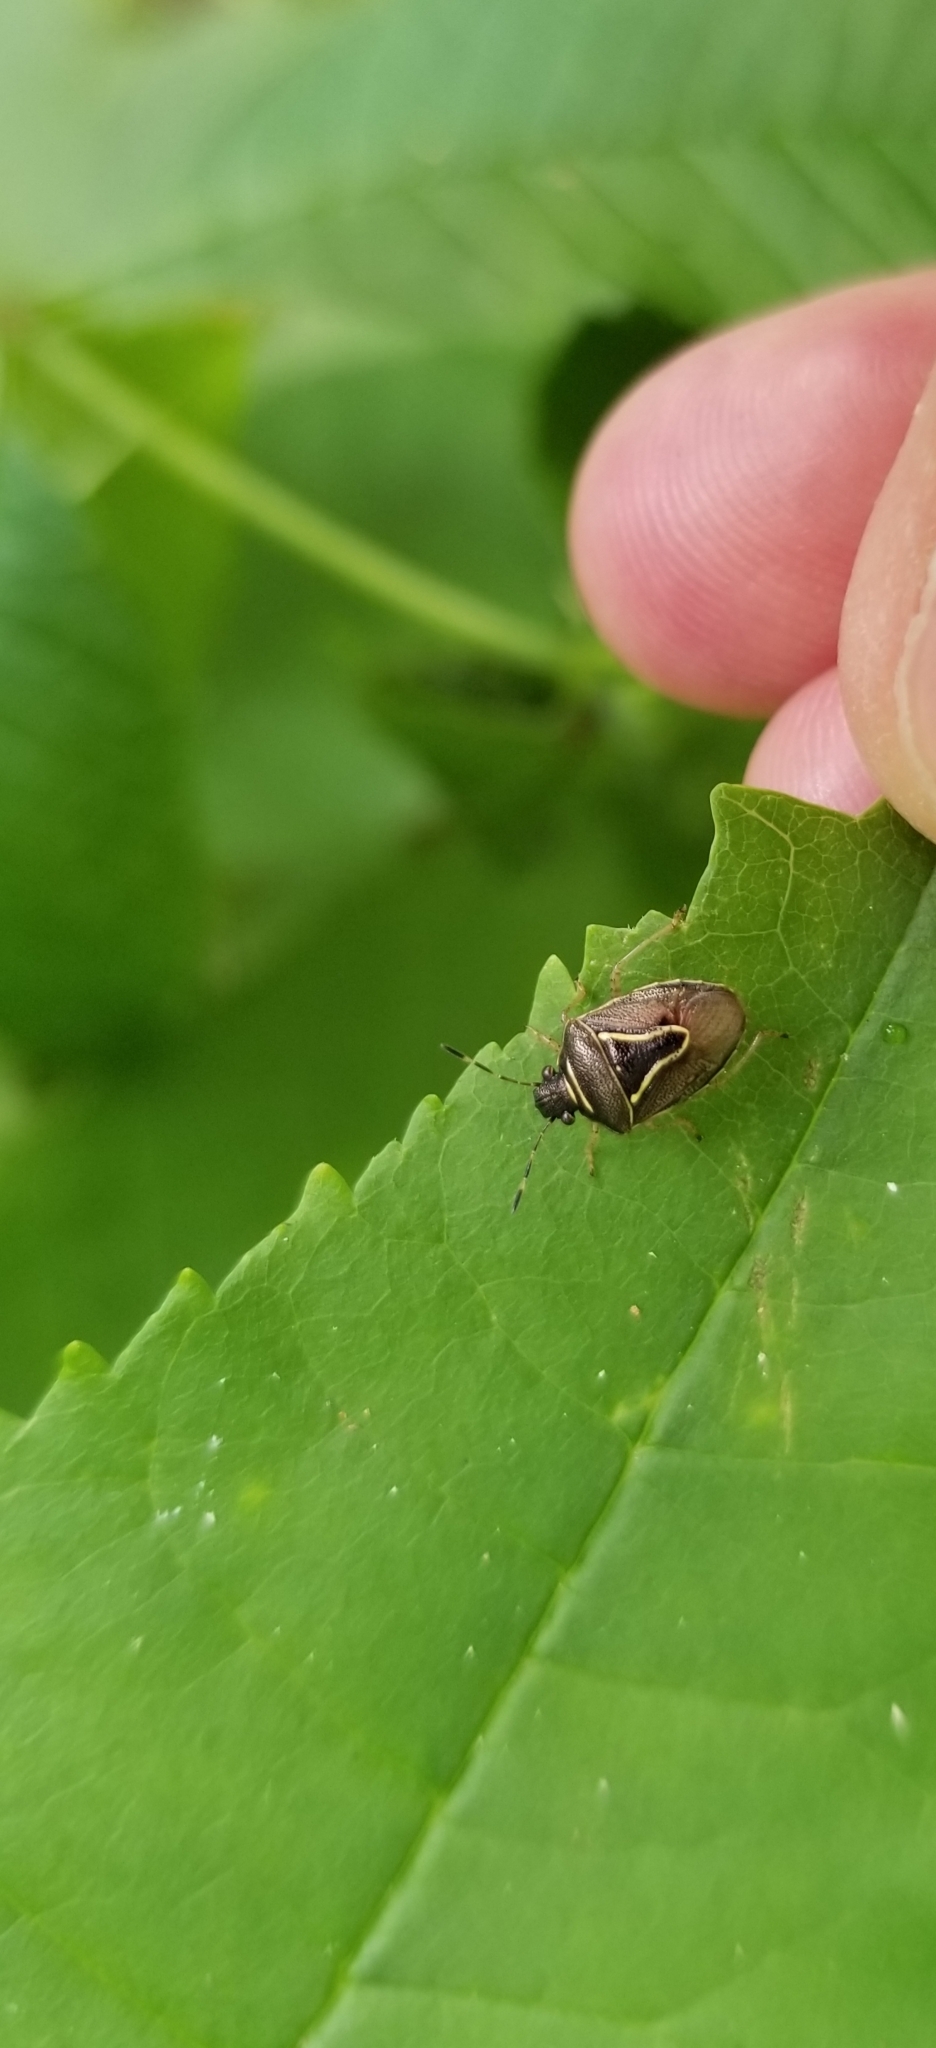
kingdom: Animalia
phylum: Arthropoda
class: Insecta
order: Hemiptera
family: Pentatomidae
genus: Mormidea
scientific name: Mormidea lugens
